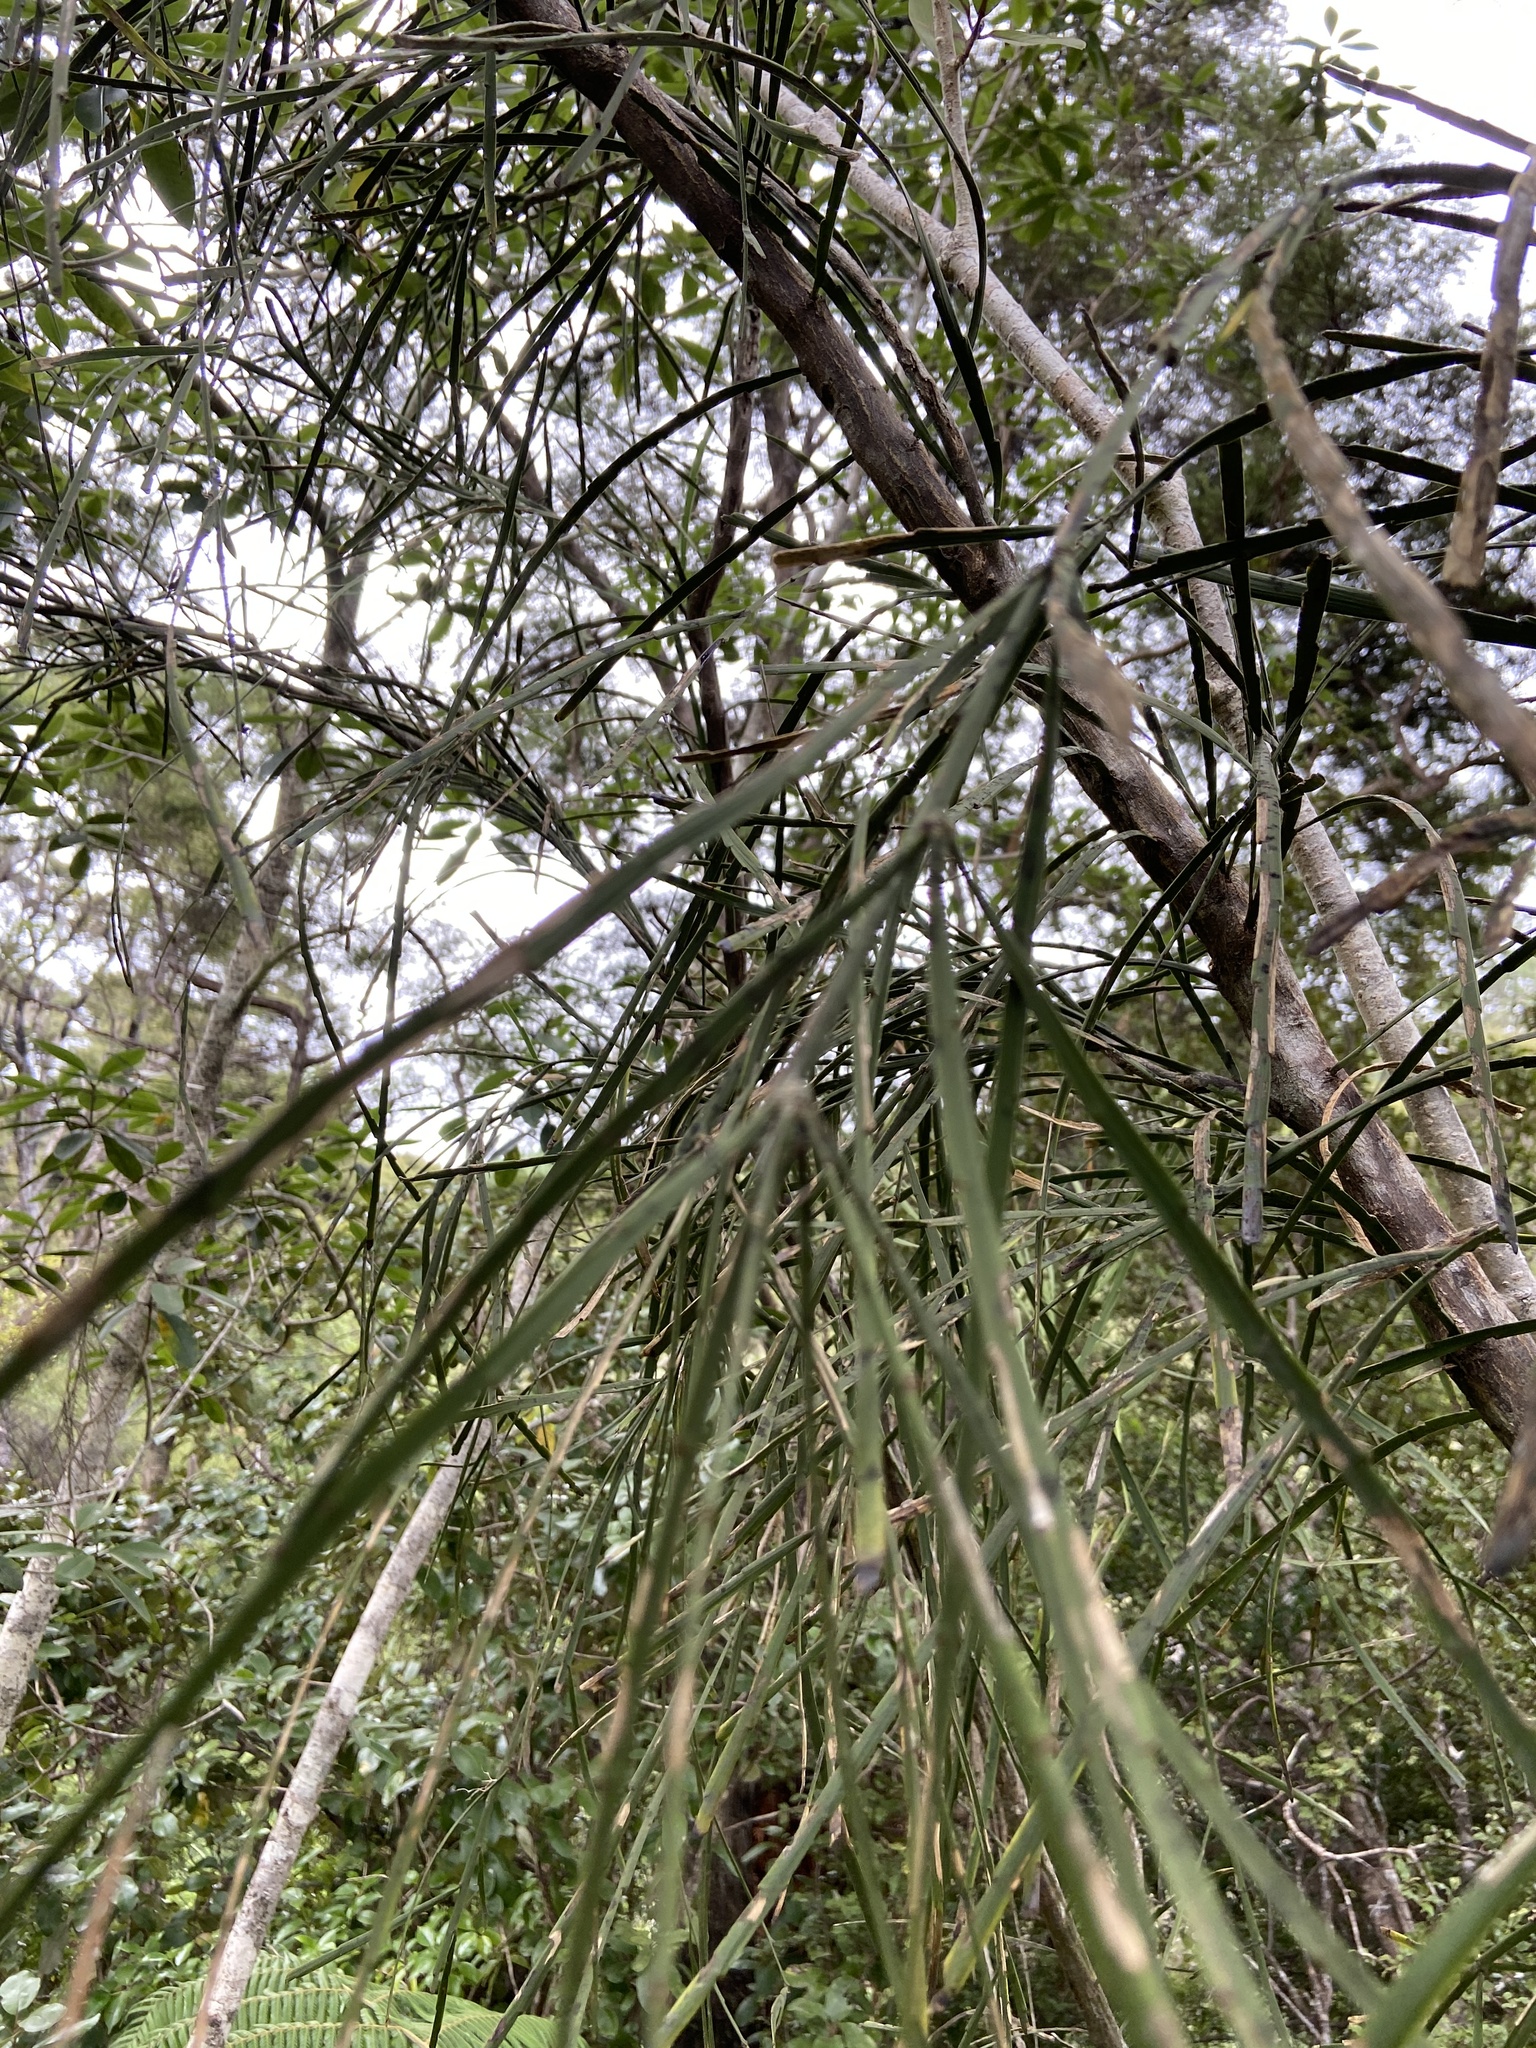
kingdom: Plantae
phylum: Tracheophyta
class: Magnoliopsida
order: Fabales
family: Fabaceae
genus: Carmichaelia
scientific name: Carmichaelia australis
